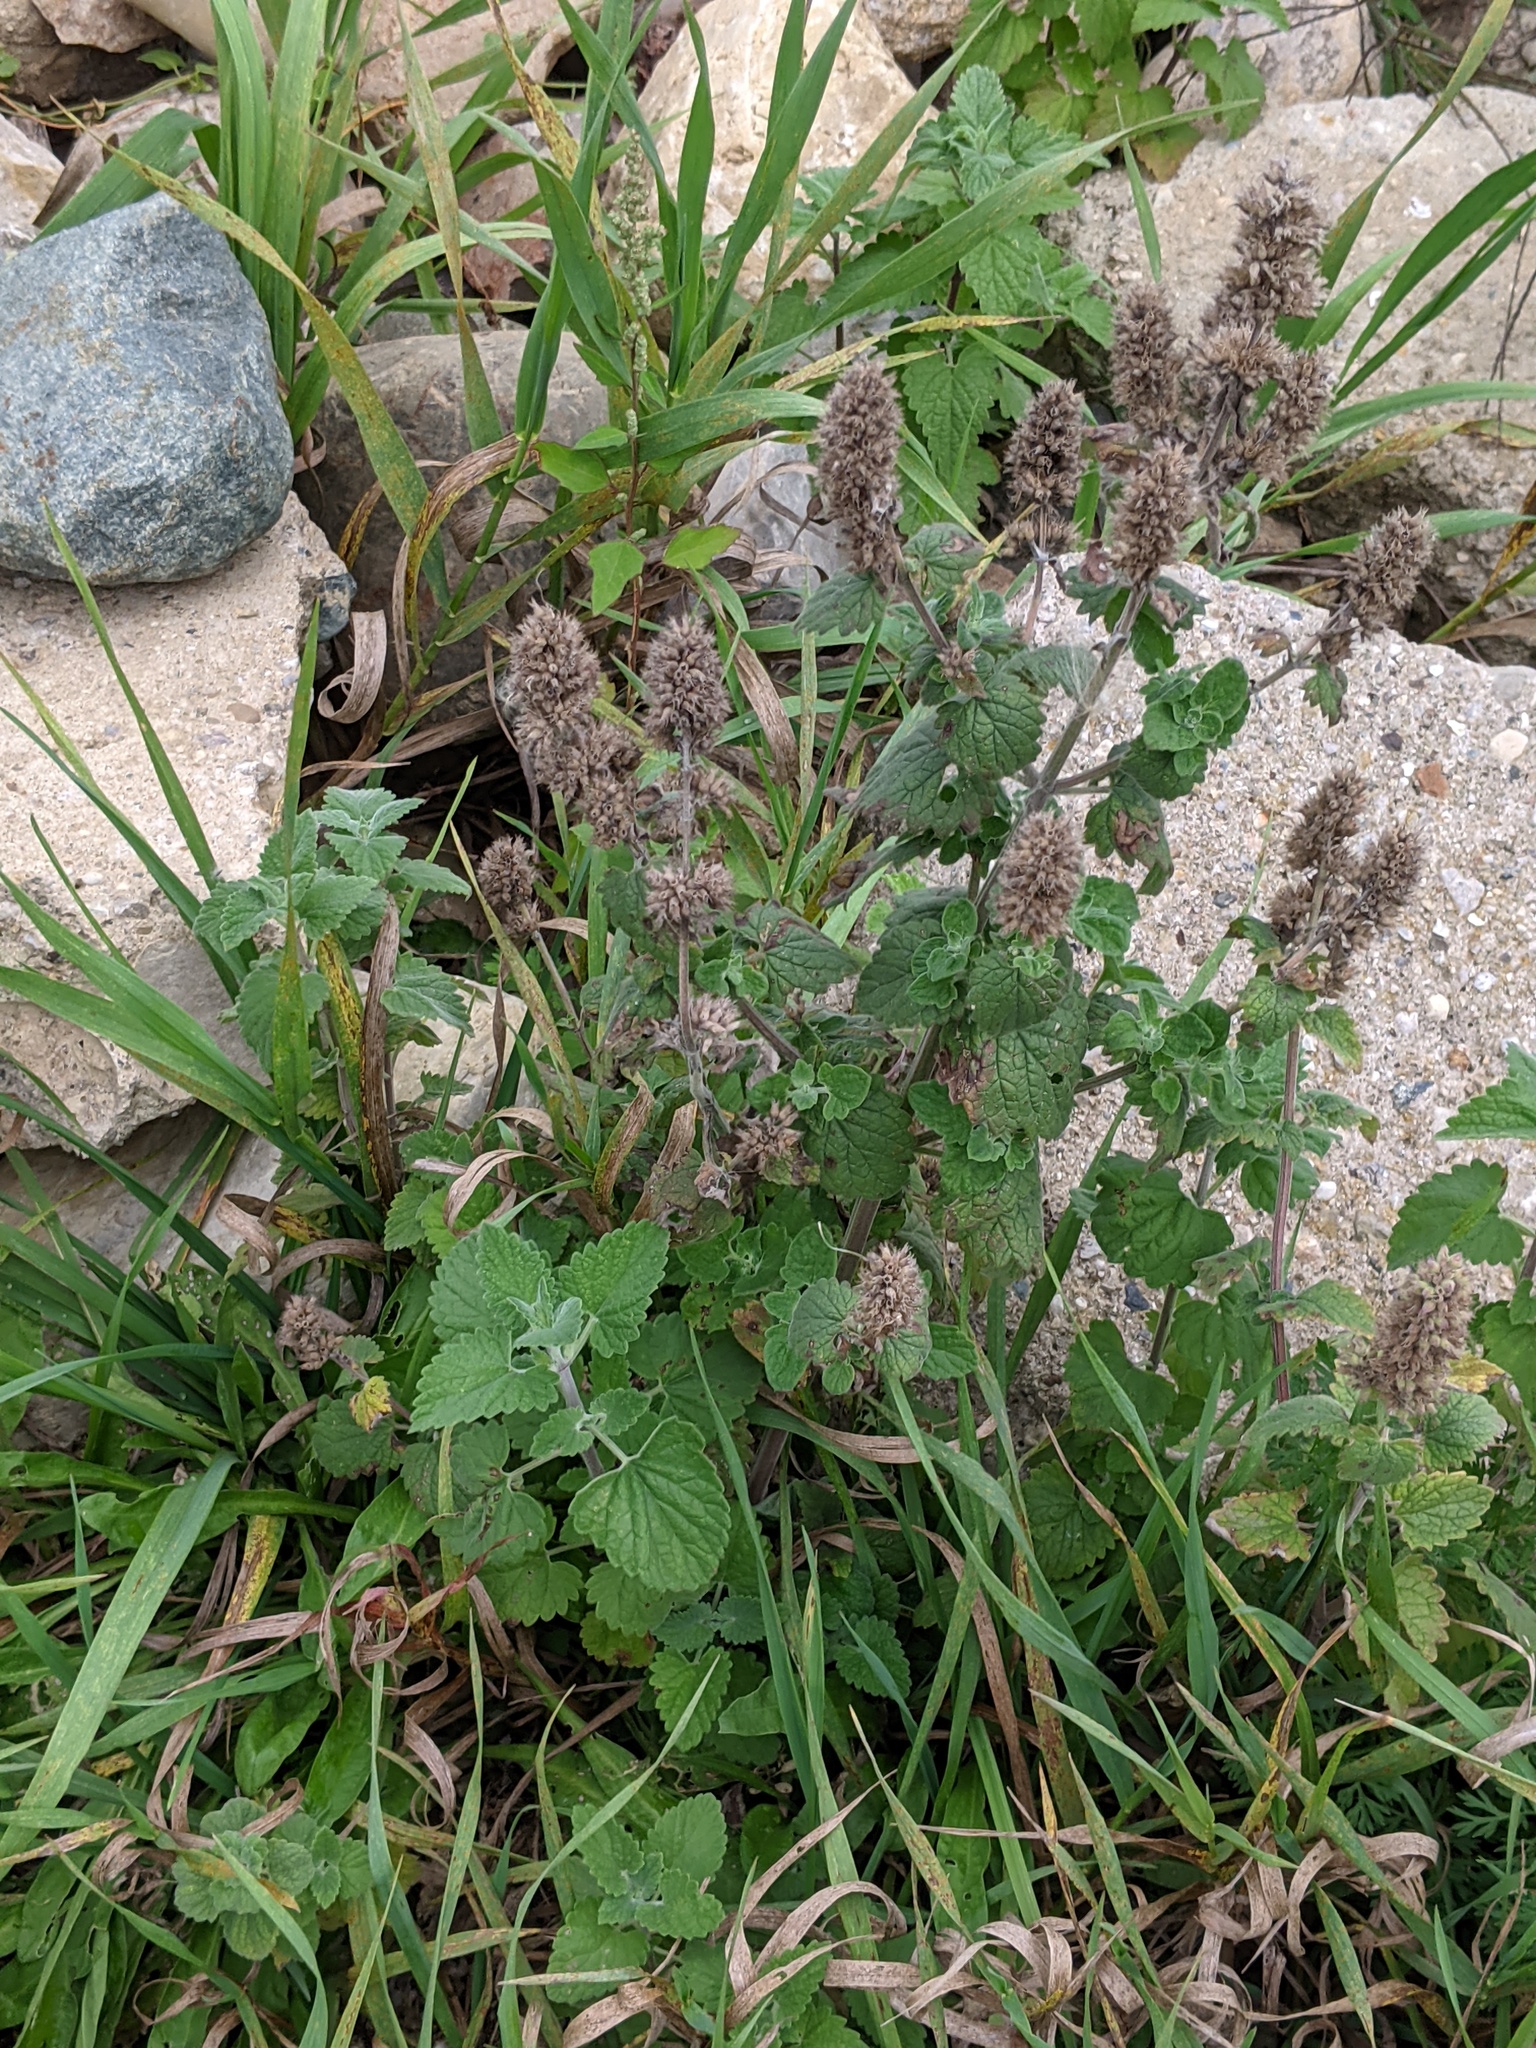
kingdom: Plantae
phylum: Tracheophyta
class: Magnoliopsida
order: Lamiales
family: Lamiaceae
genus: Nepeta
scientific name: Nepeta cataria
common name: Catnip
